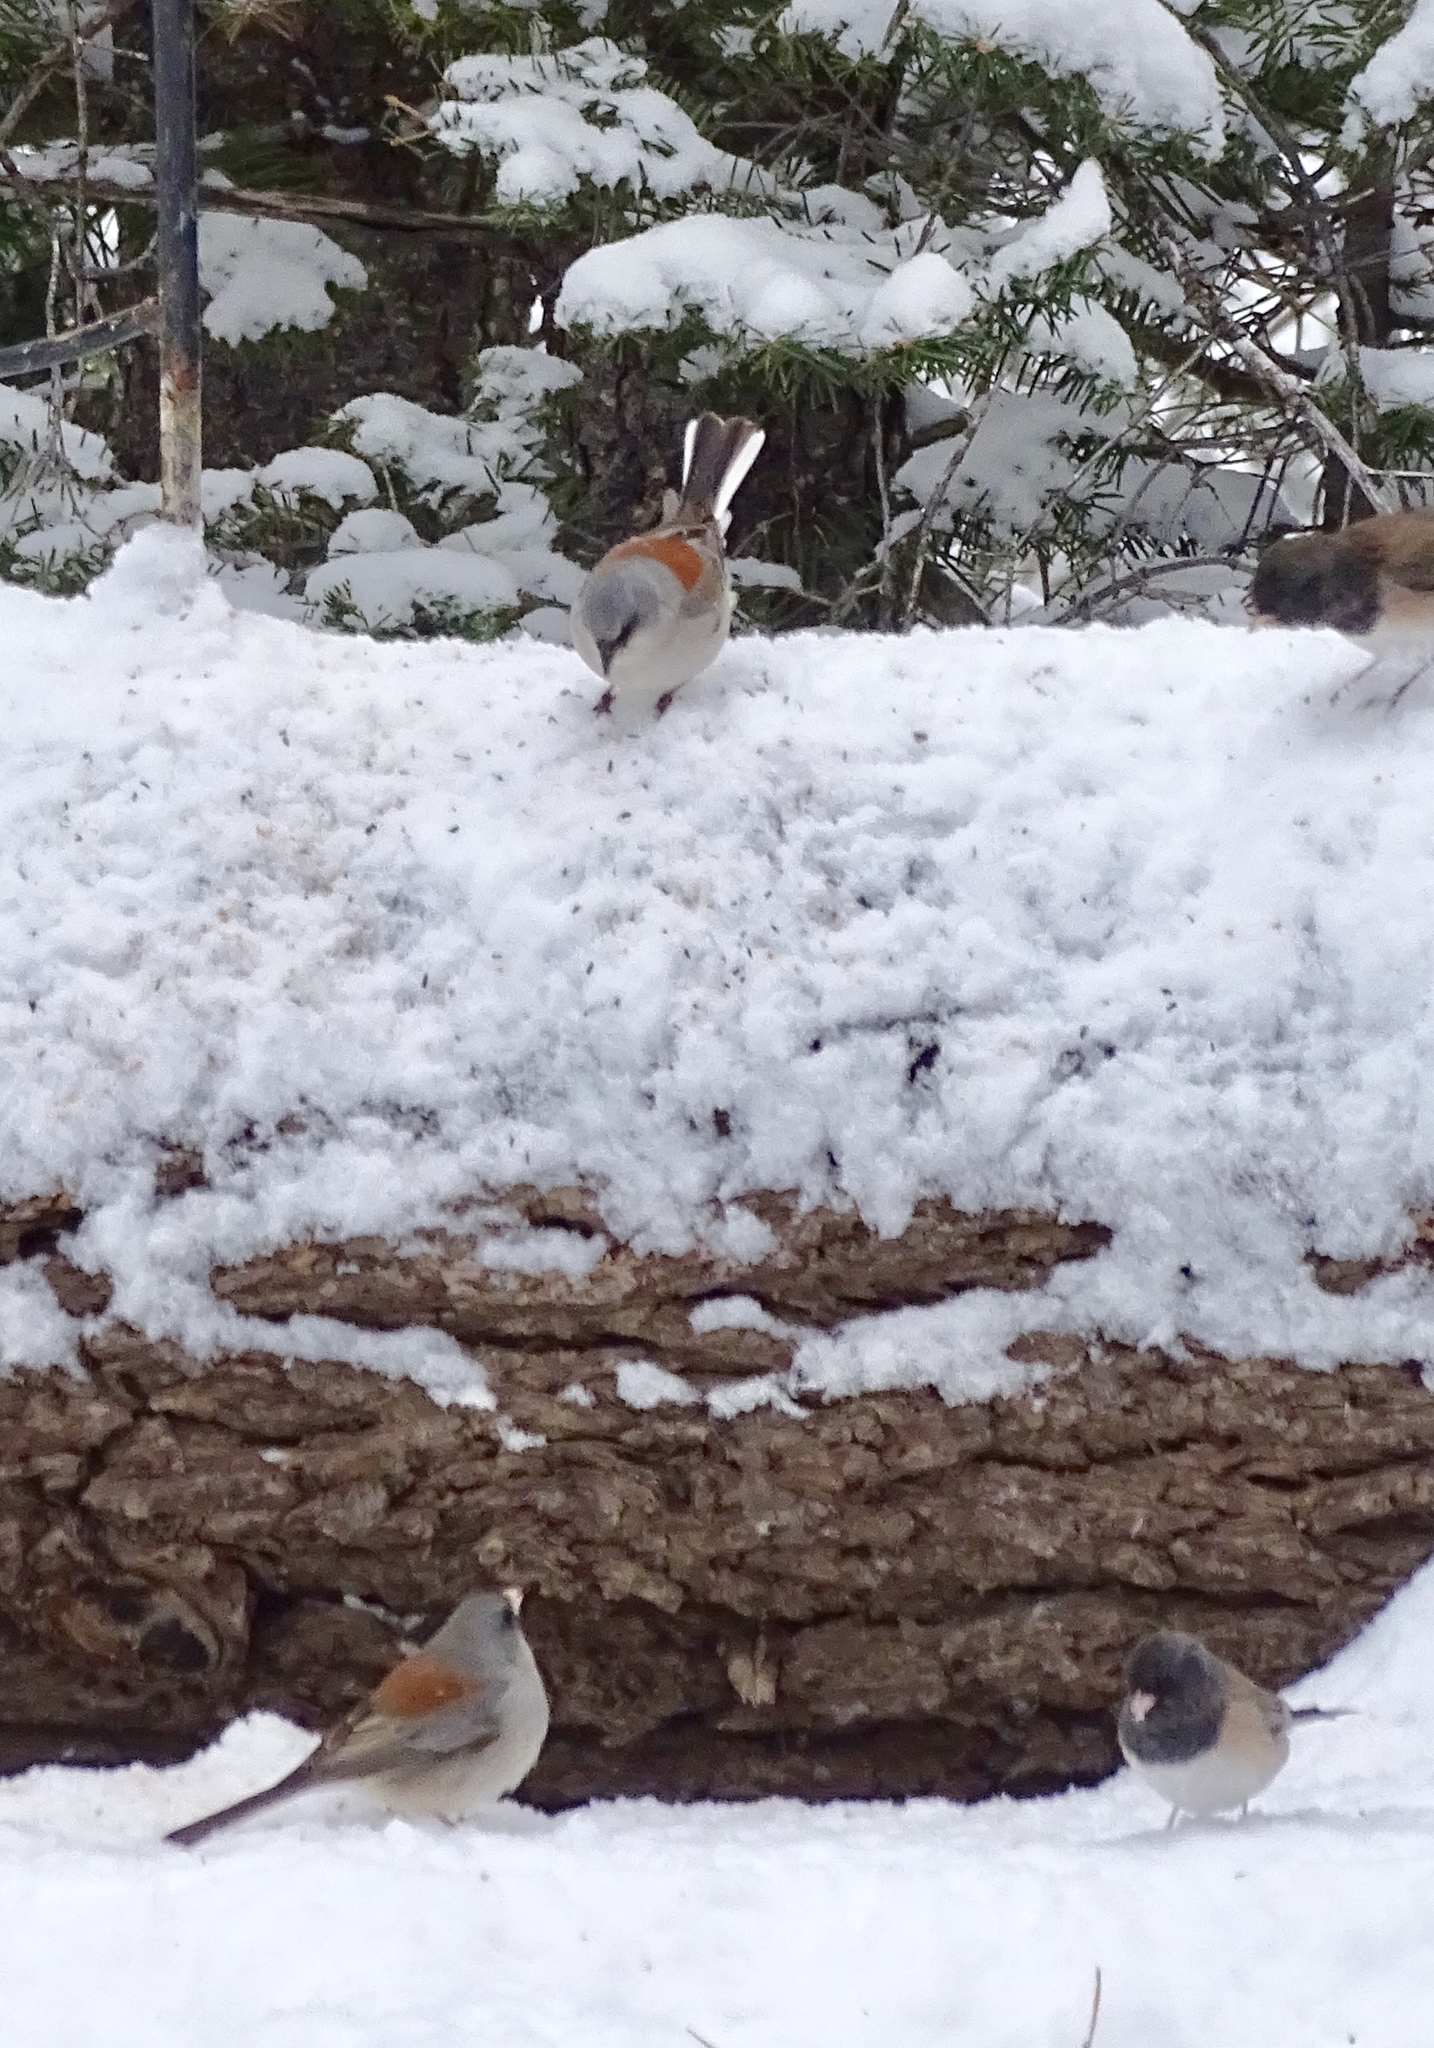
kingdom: Animalia
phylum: Chordata
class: Aves
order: Passeriformes
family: Passerellidae
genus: Junco
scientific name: Junco hyemalis
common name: Dark-eyed junco
